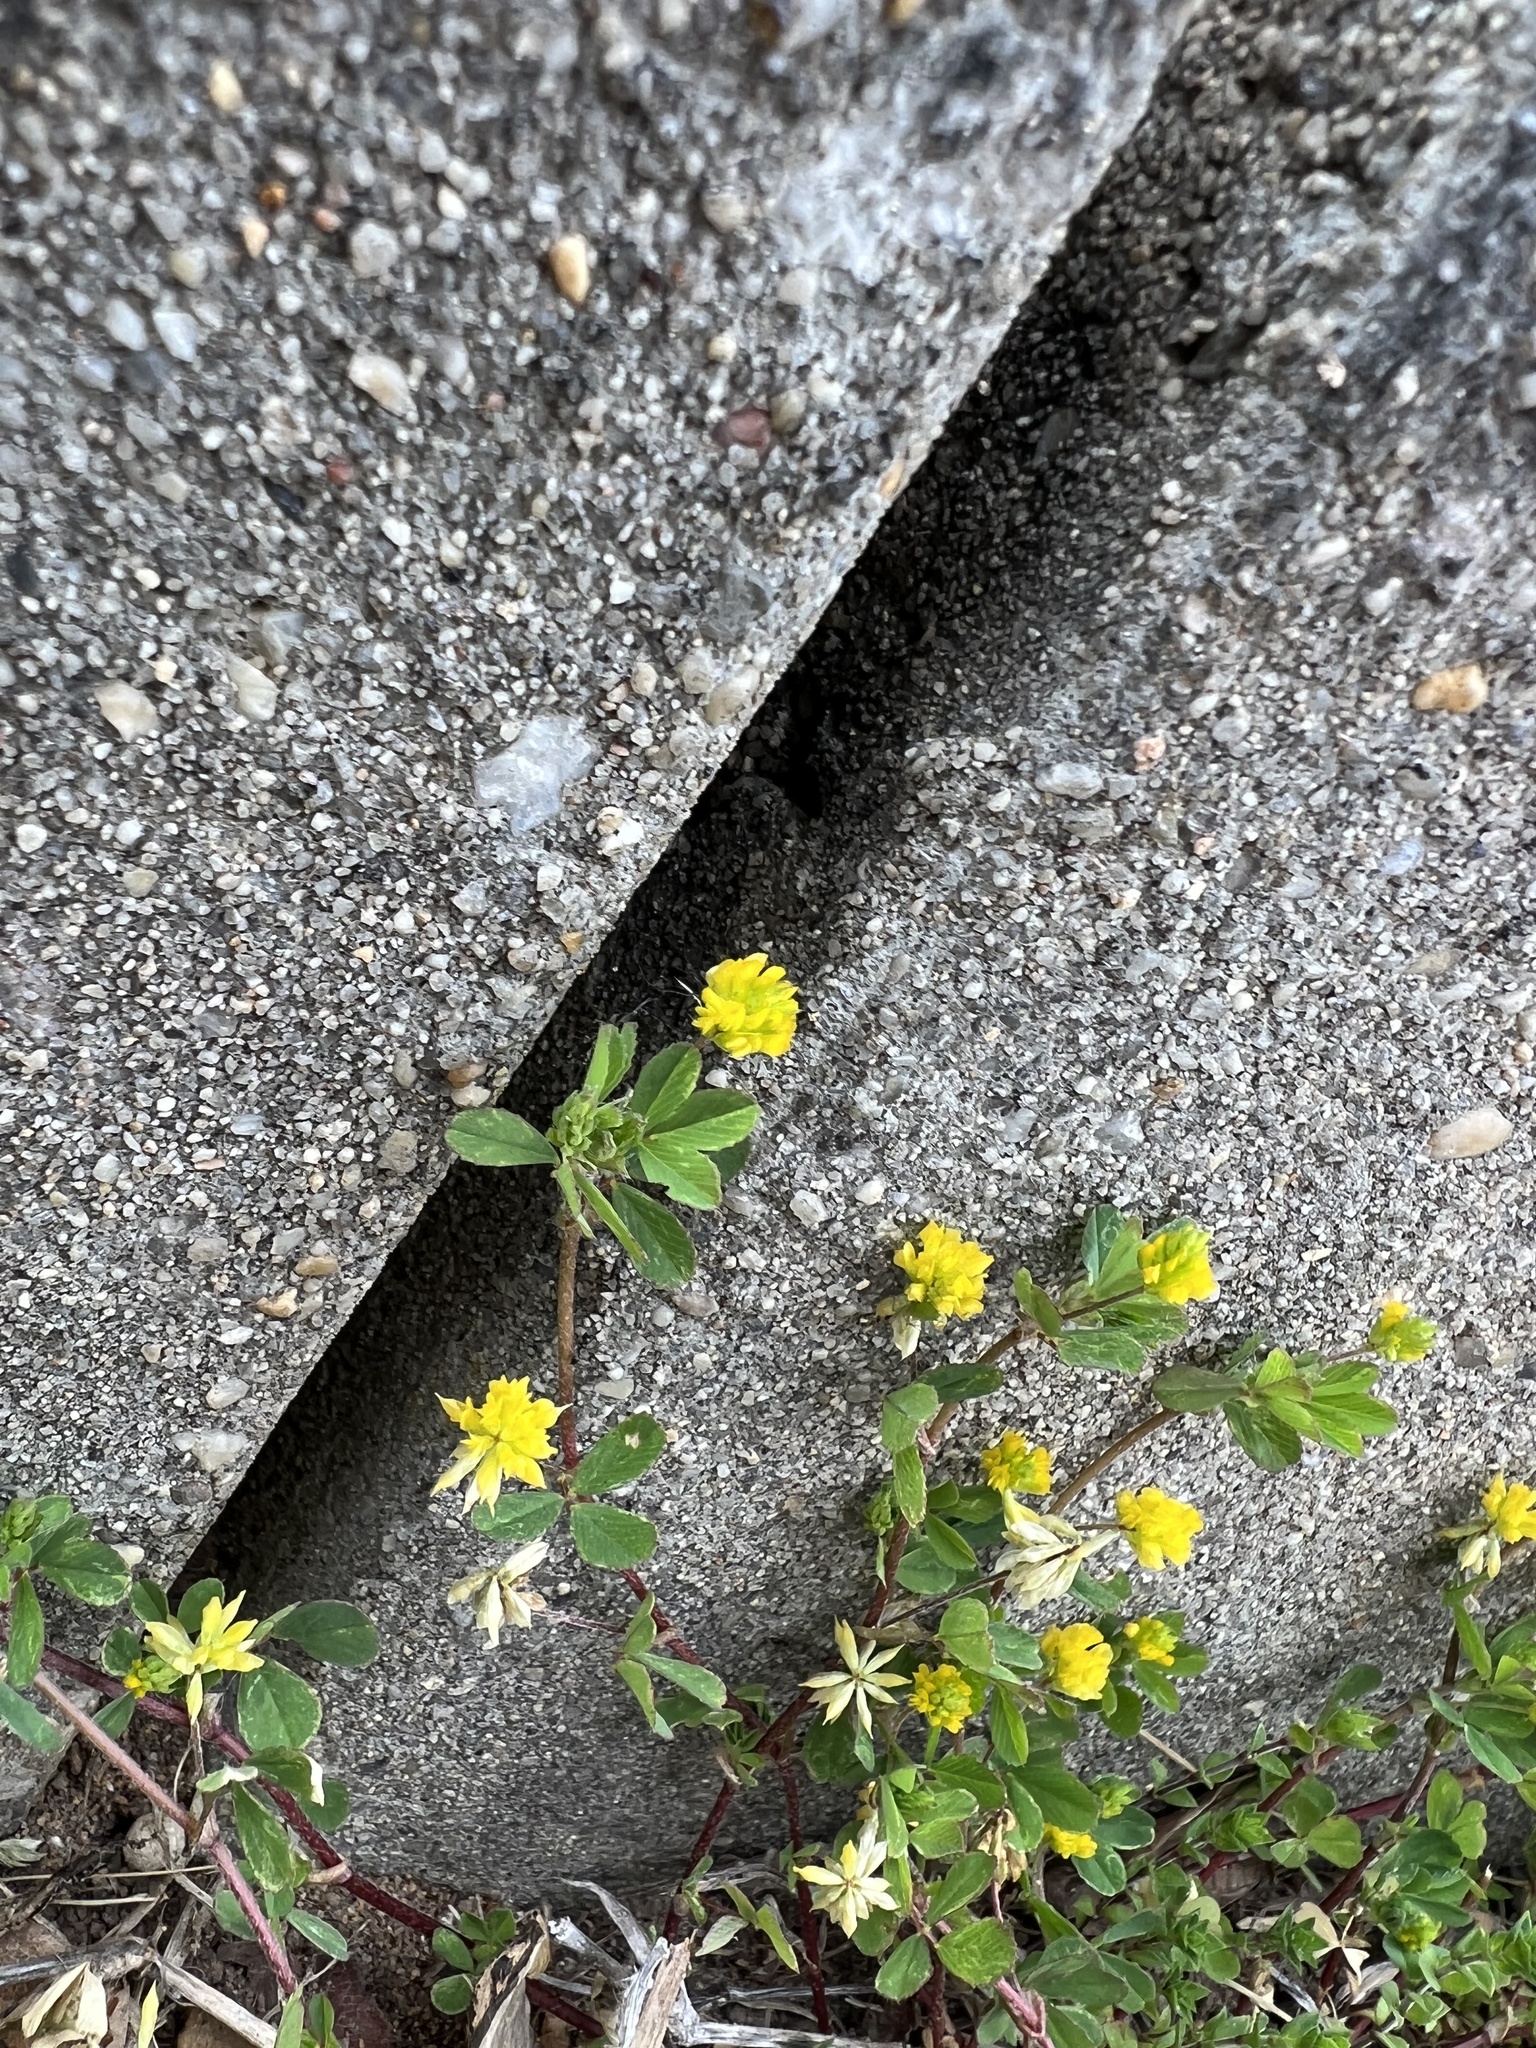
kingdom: Plantae
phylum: Tracheophyta
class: Magnoliopsida
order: Fabales
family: Fabaceae
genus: Trifolium
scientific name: Trifolium dubium
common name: Suckling clover
